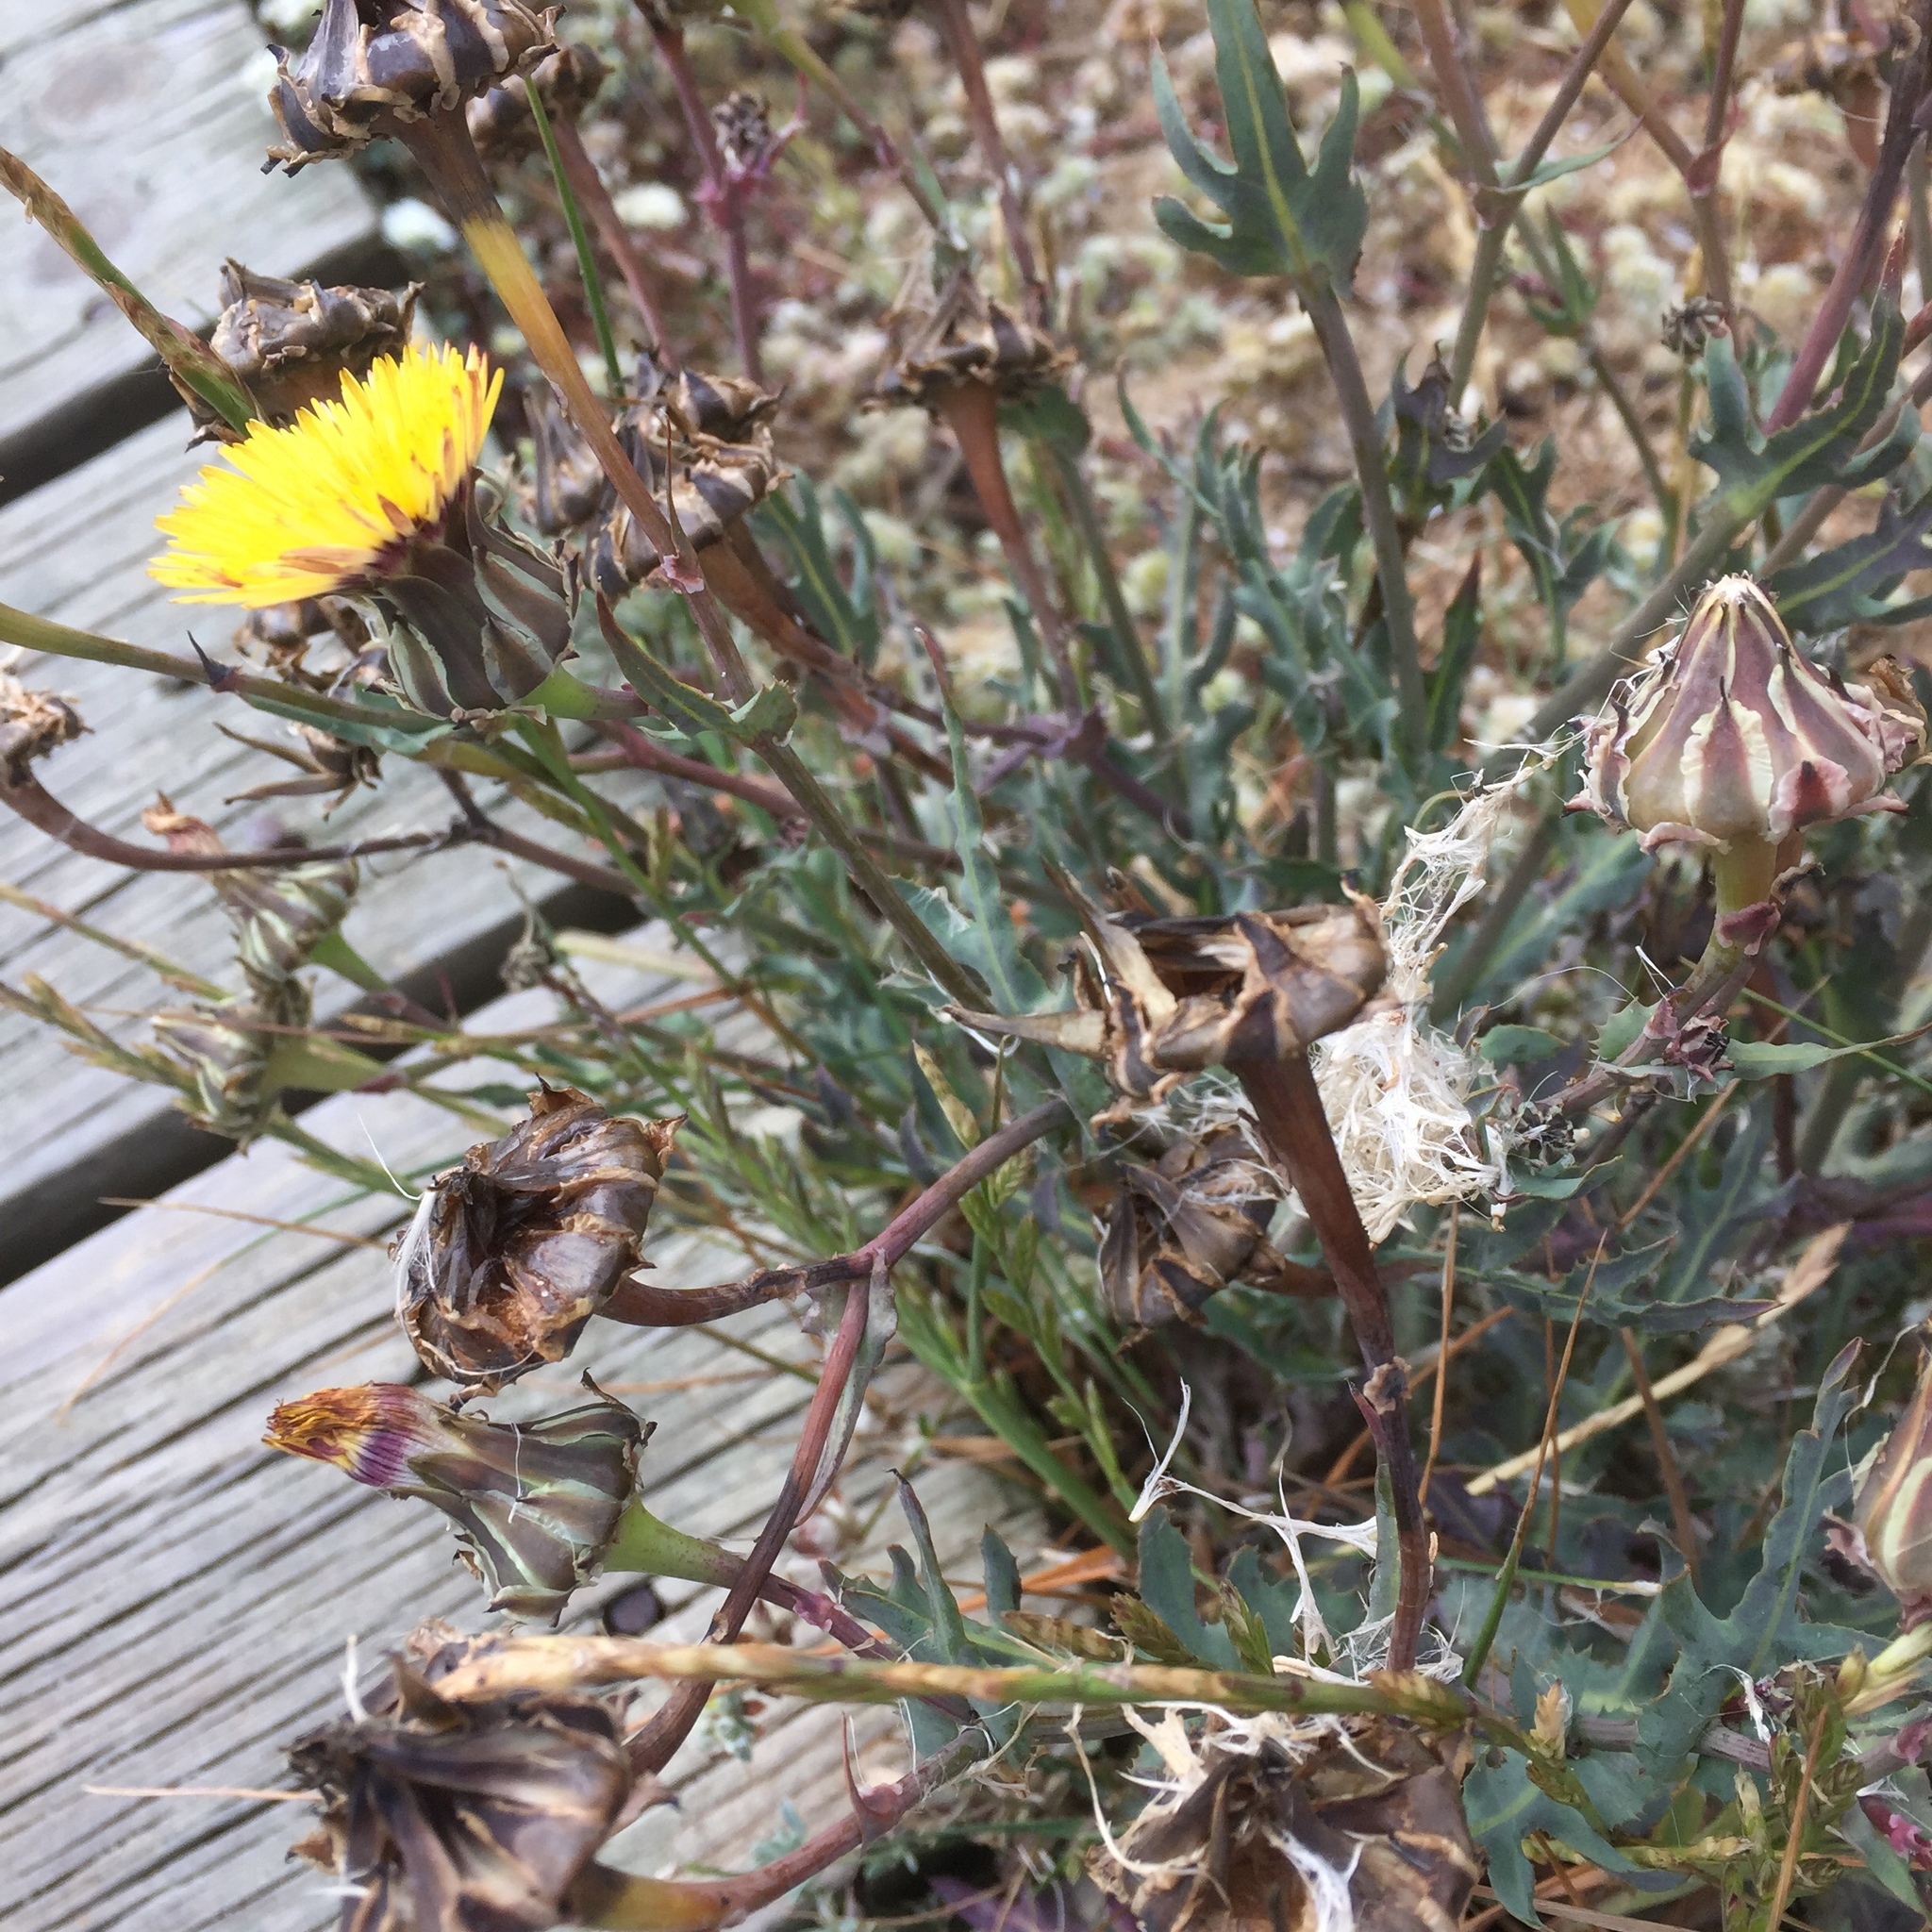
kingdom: Plantae
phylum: Tracheophyta
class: Magnoliopsida
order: Asterales
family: Asteraceae
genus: Reichardia
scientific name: Reichardia gaditana
